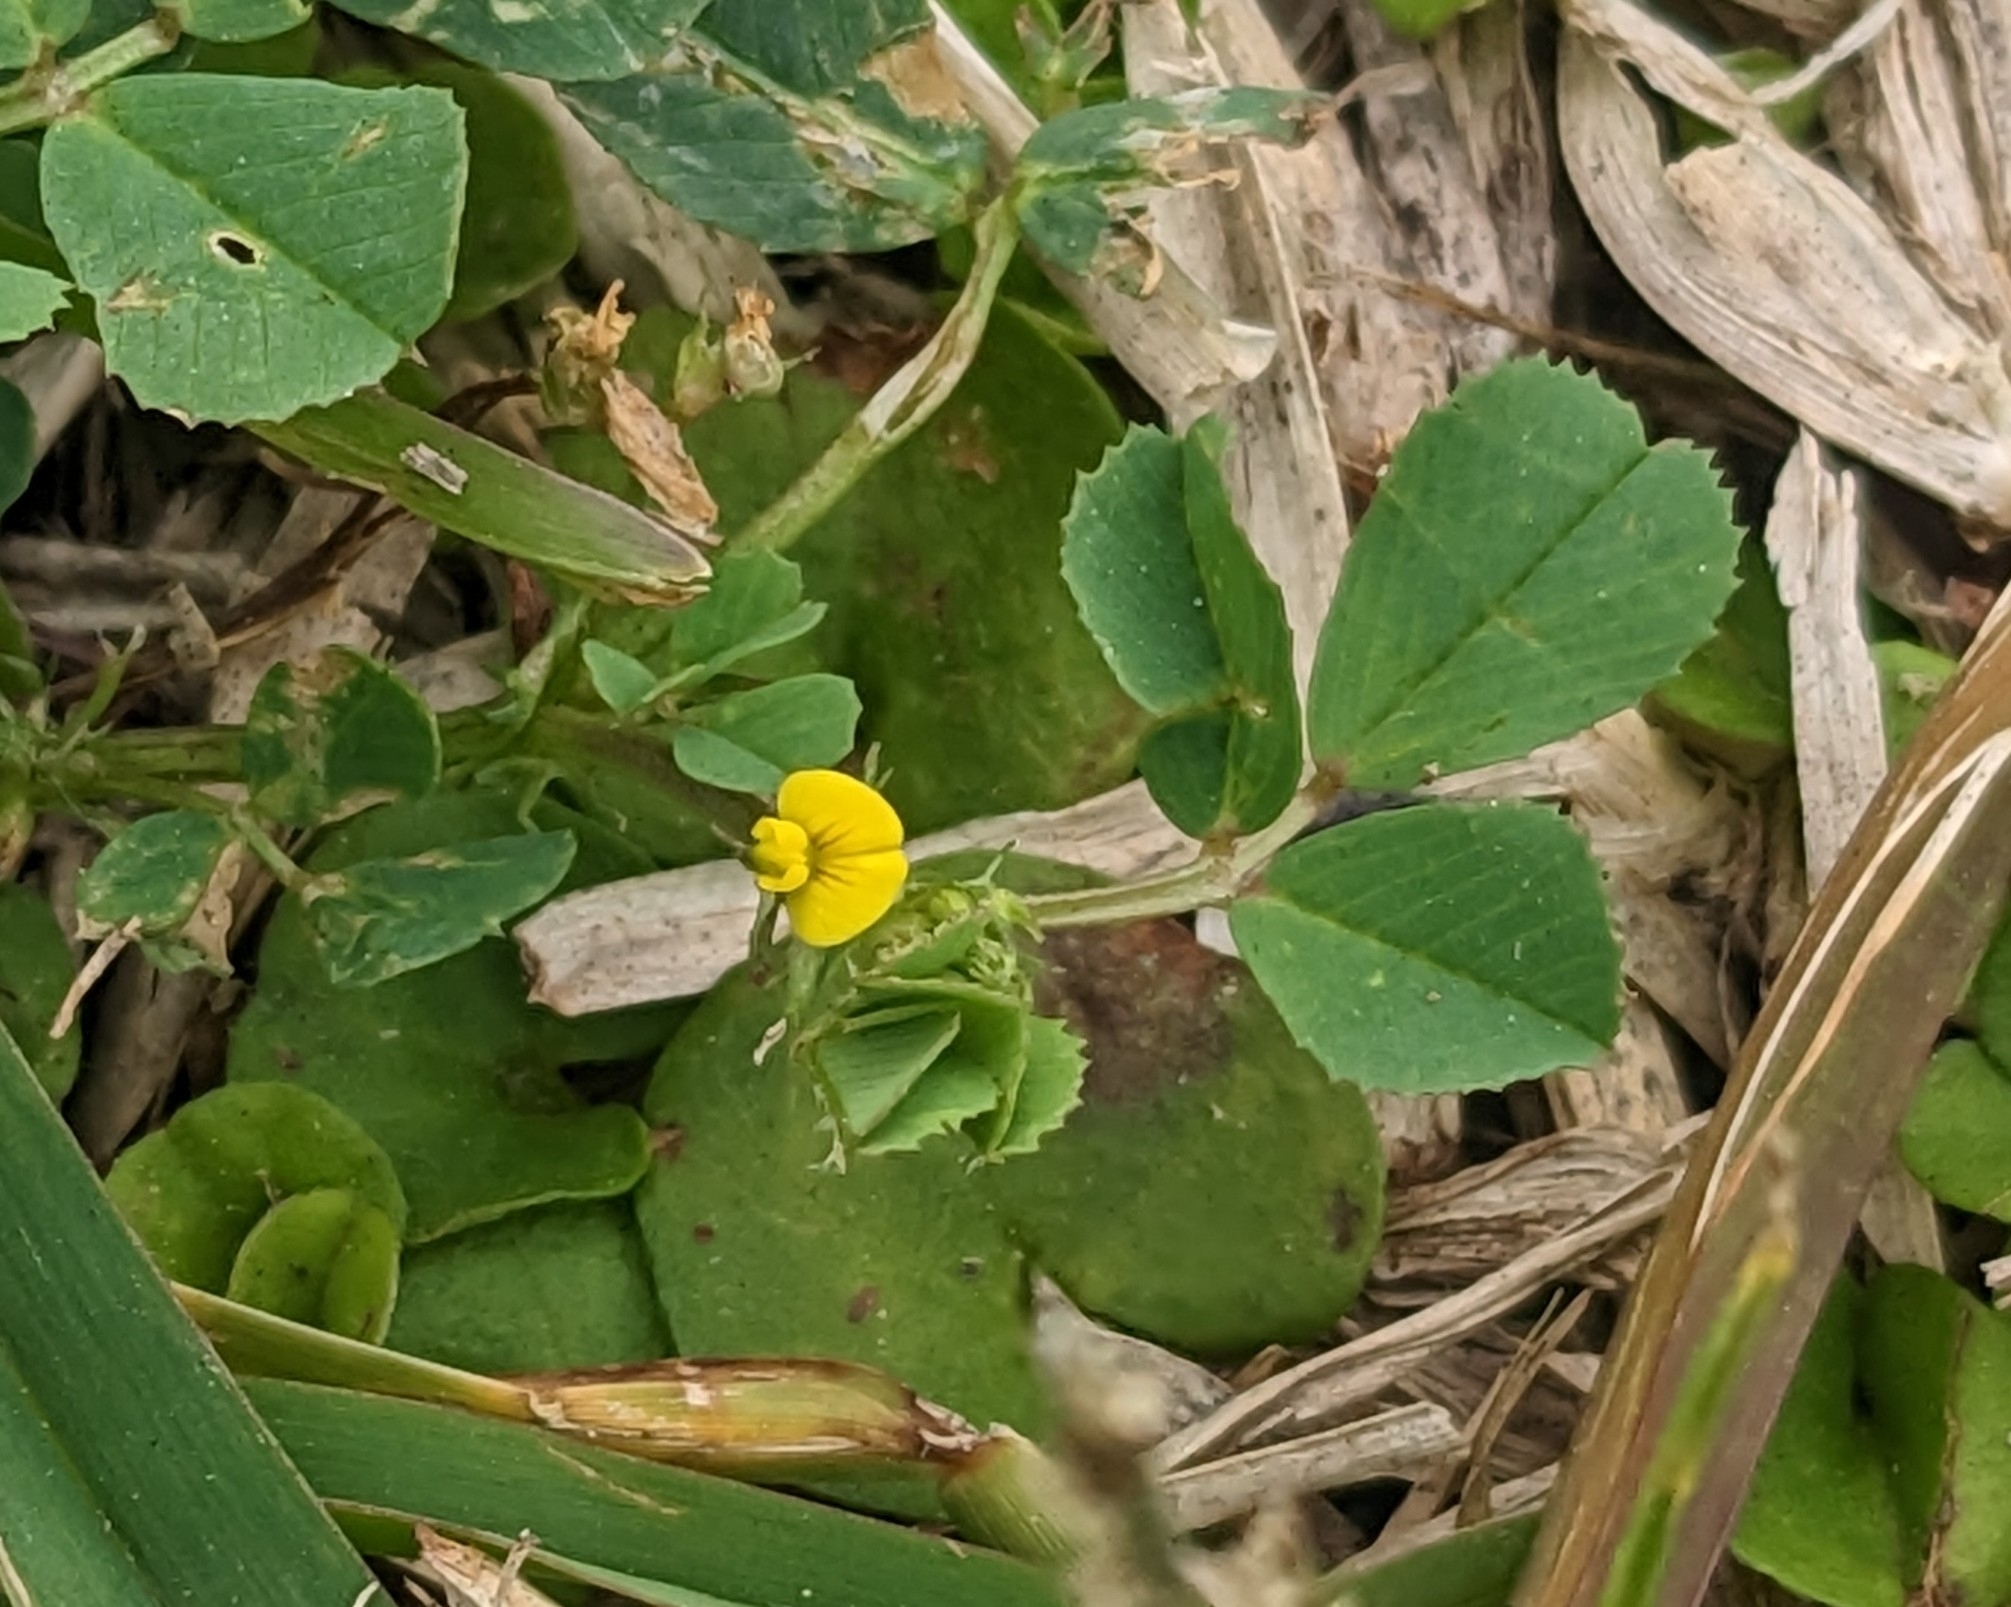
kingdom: Plantae
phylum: Tracheophyta
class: Magnoliopsida
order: Fabales
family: Fabaceae
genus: Medicago
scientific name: Medicago polymorpha
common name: Burclover
